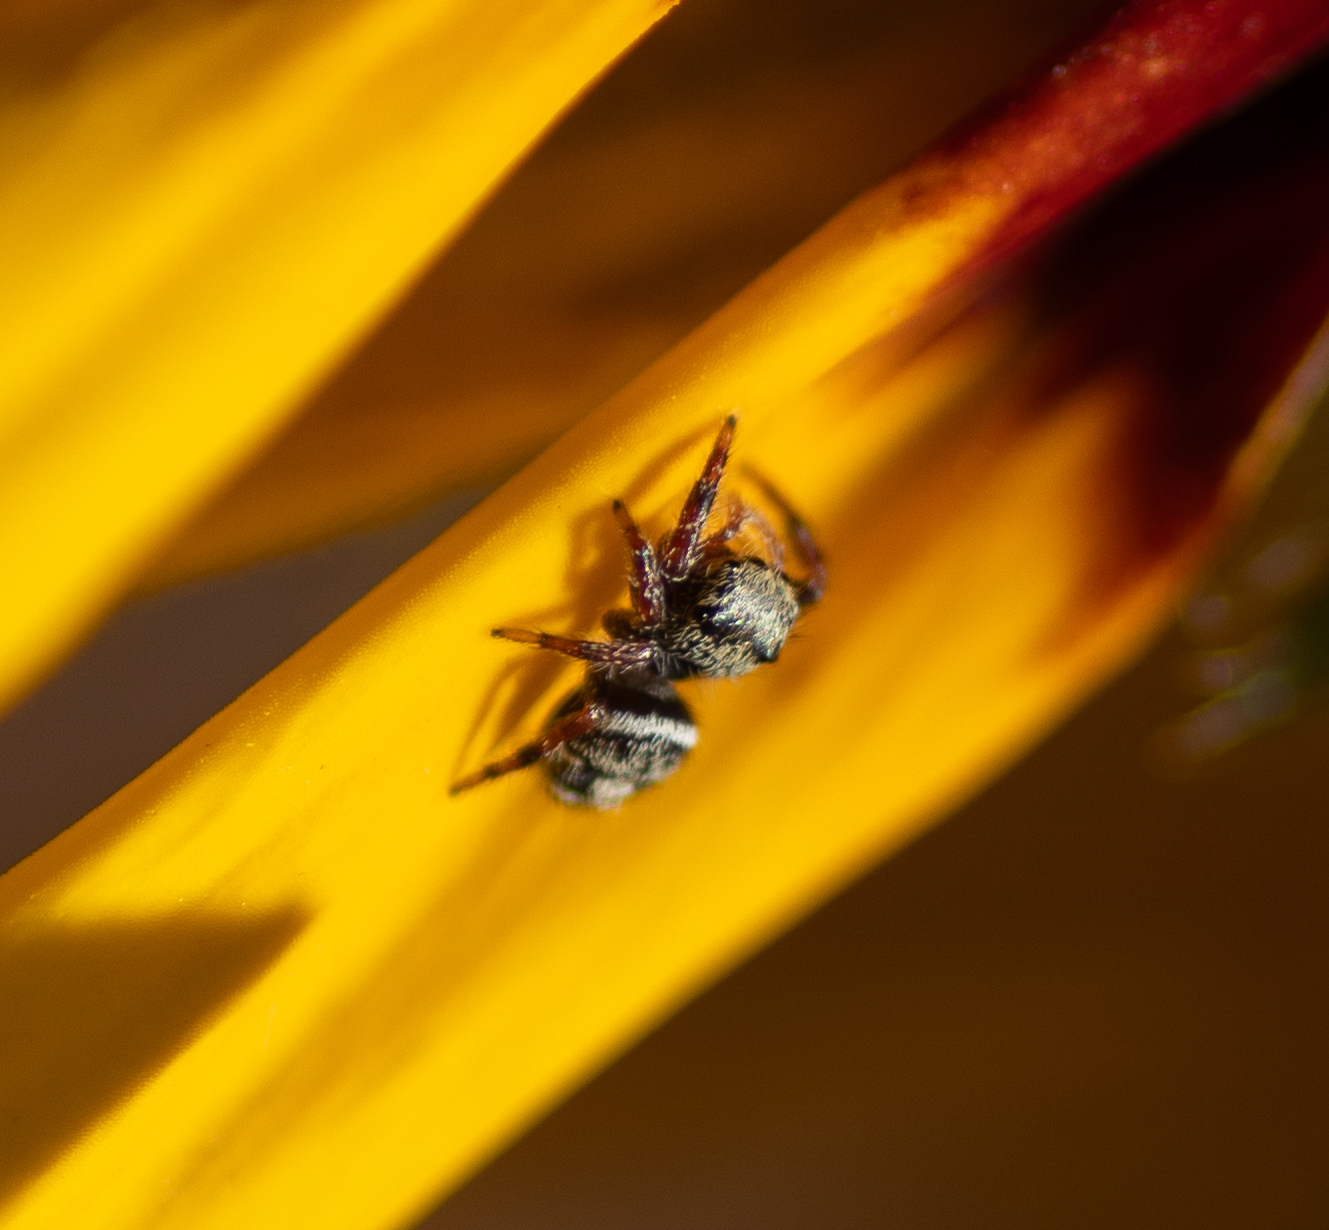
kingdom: Animalia
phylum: Arthropoda
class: Arachnida
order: Araneae
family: Salticidae
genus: Phidippus
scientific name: Phidippus audax
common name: Bold jumper
